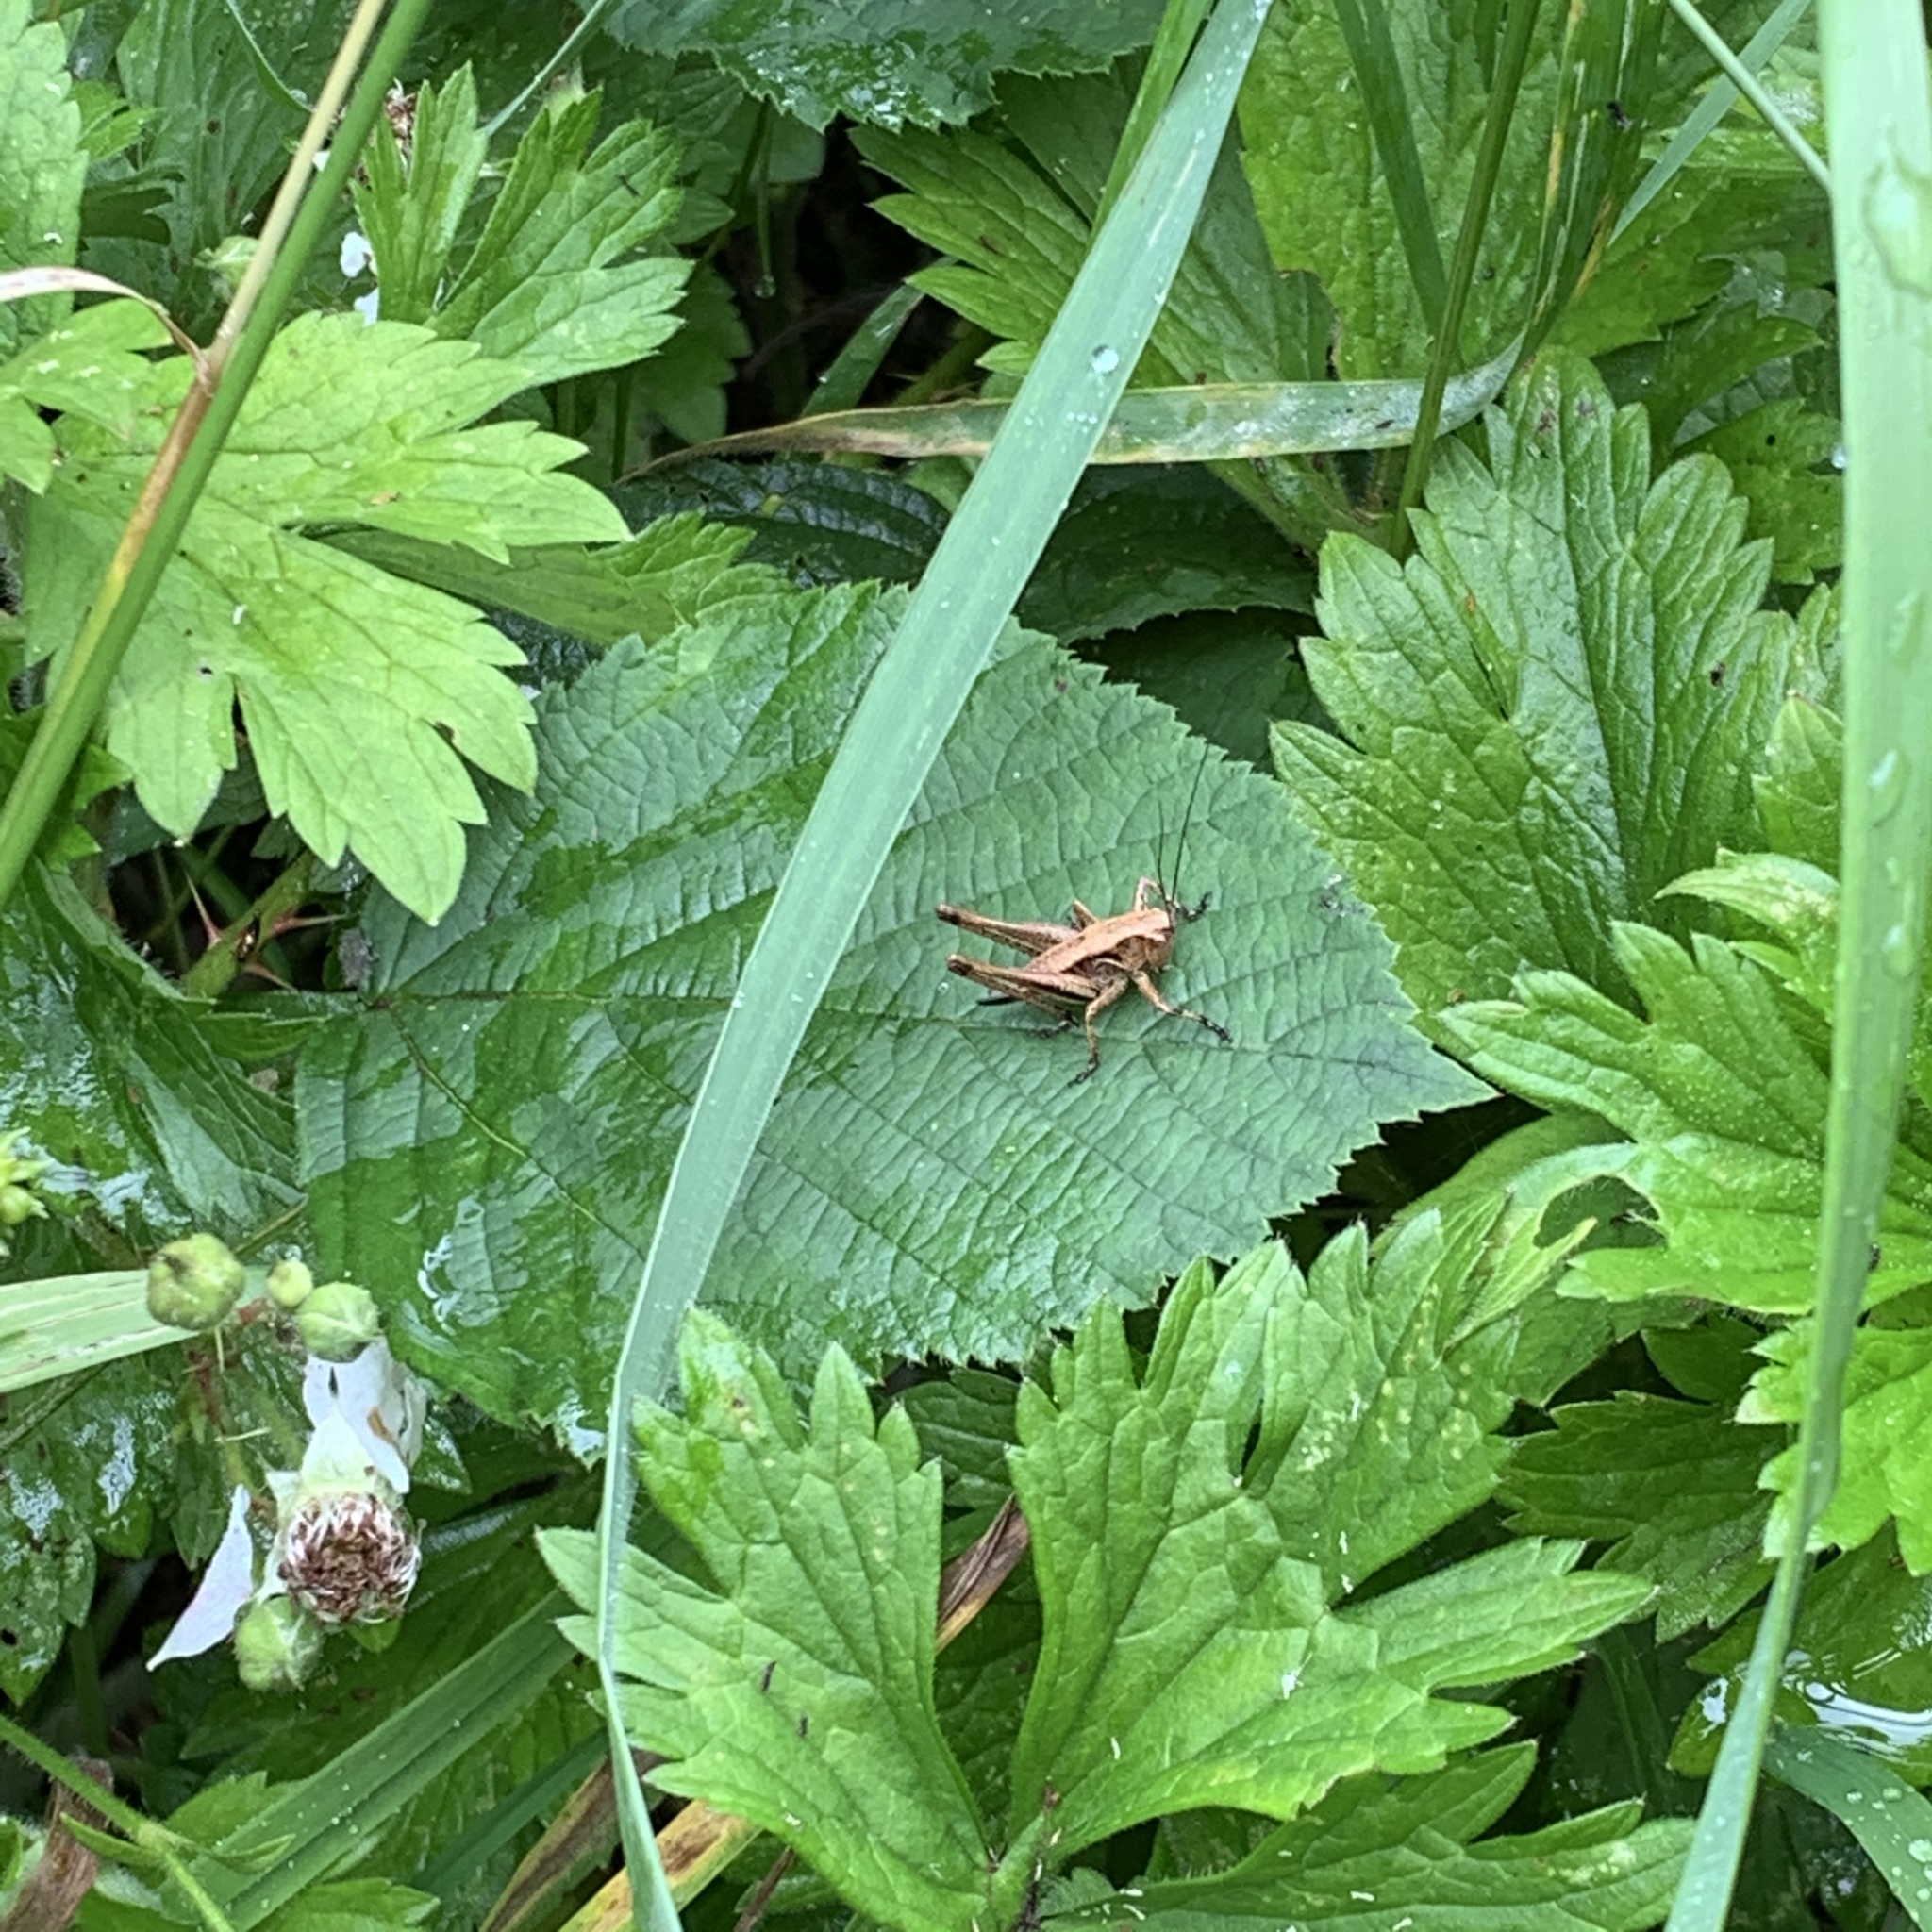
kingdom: Animalia
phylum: Arthropoda
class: Insecta
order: Orthoptera
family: Tettigoniidae
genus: Pholidoptera
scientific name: Pholidoptera griseoaptera
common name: Dark bush-cricket
